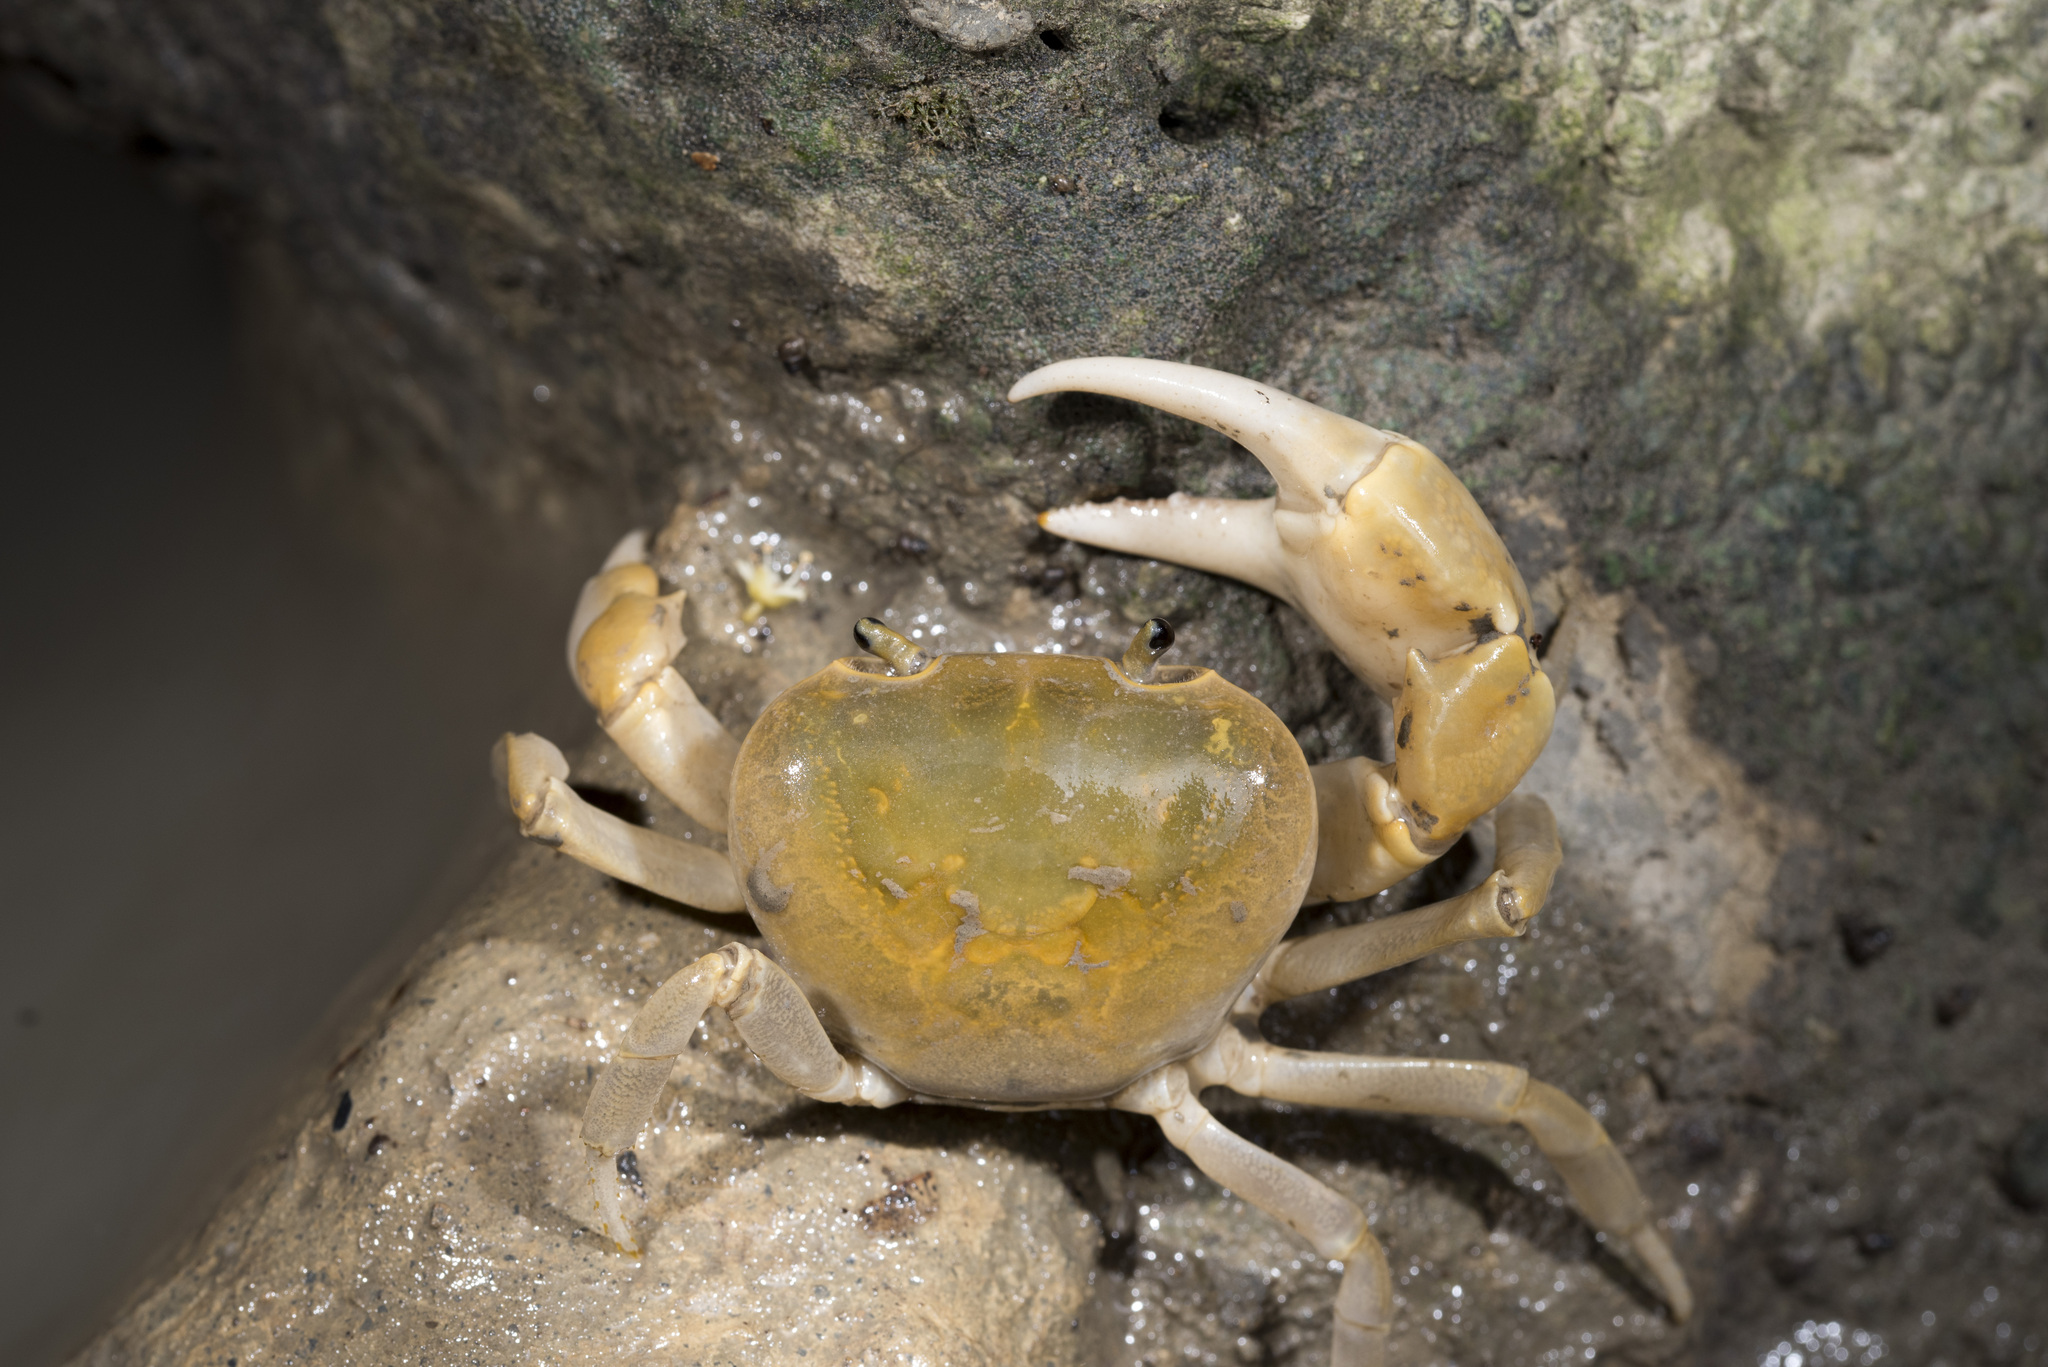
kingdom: Animalia
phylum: Arthropoda
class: Malacostraca
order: Decapoda
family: Potamidae
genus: Geothelphusa
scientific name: Geothelphusa makatao
